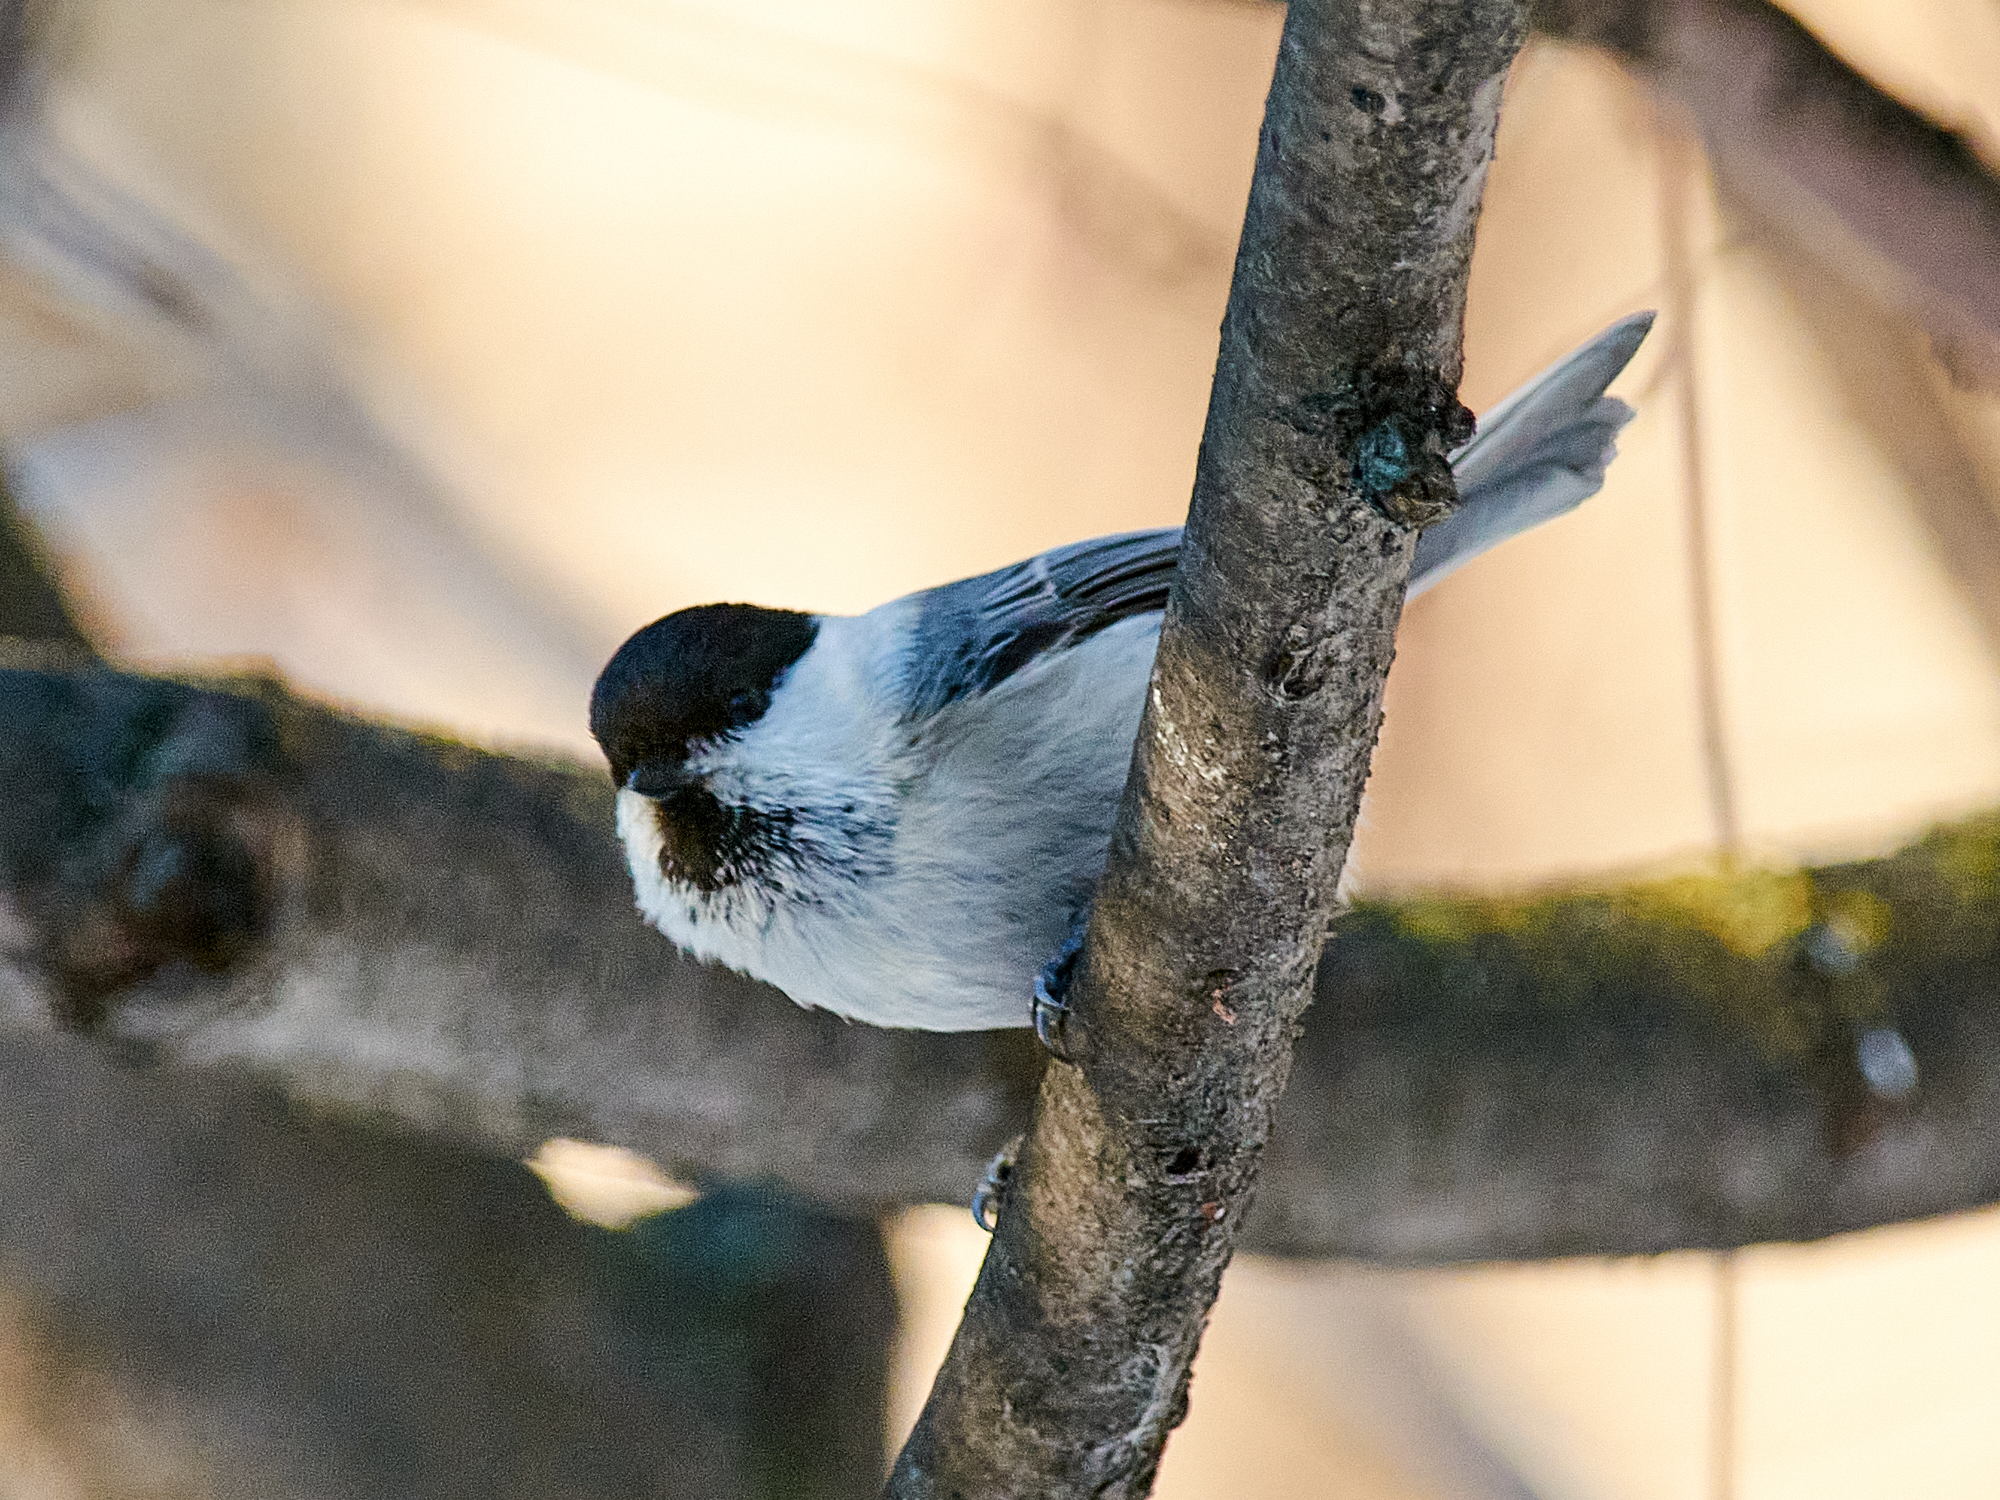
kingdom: Animalia
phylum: Chordata
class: Aves
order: Passeriformes
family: Paridae
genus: Poecile
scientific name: Poecile montanus
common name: Willow tit
